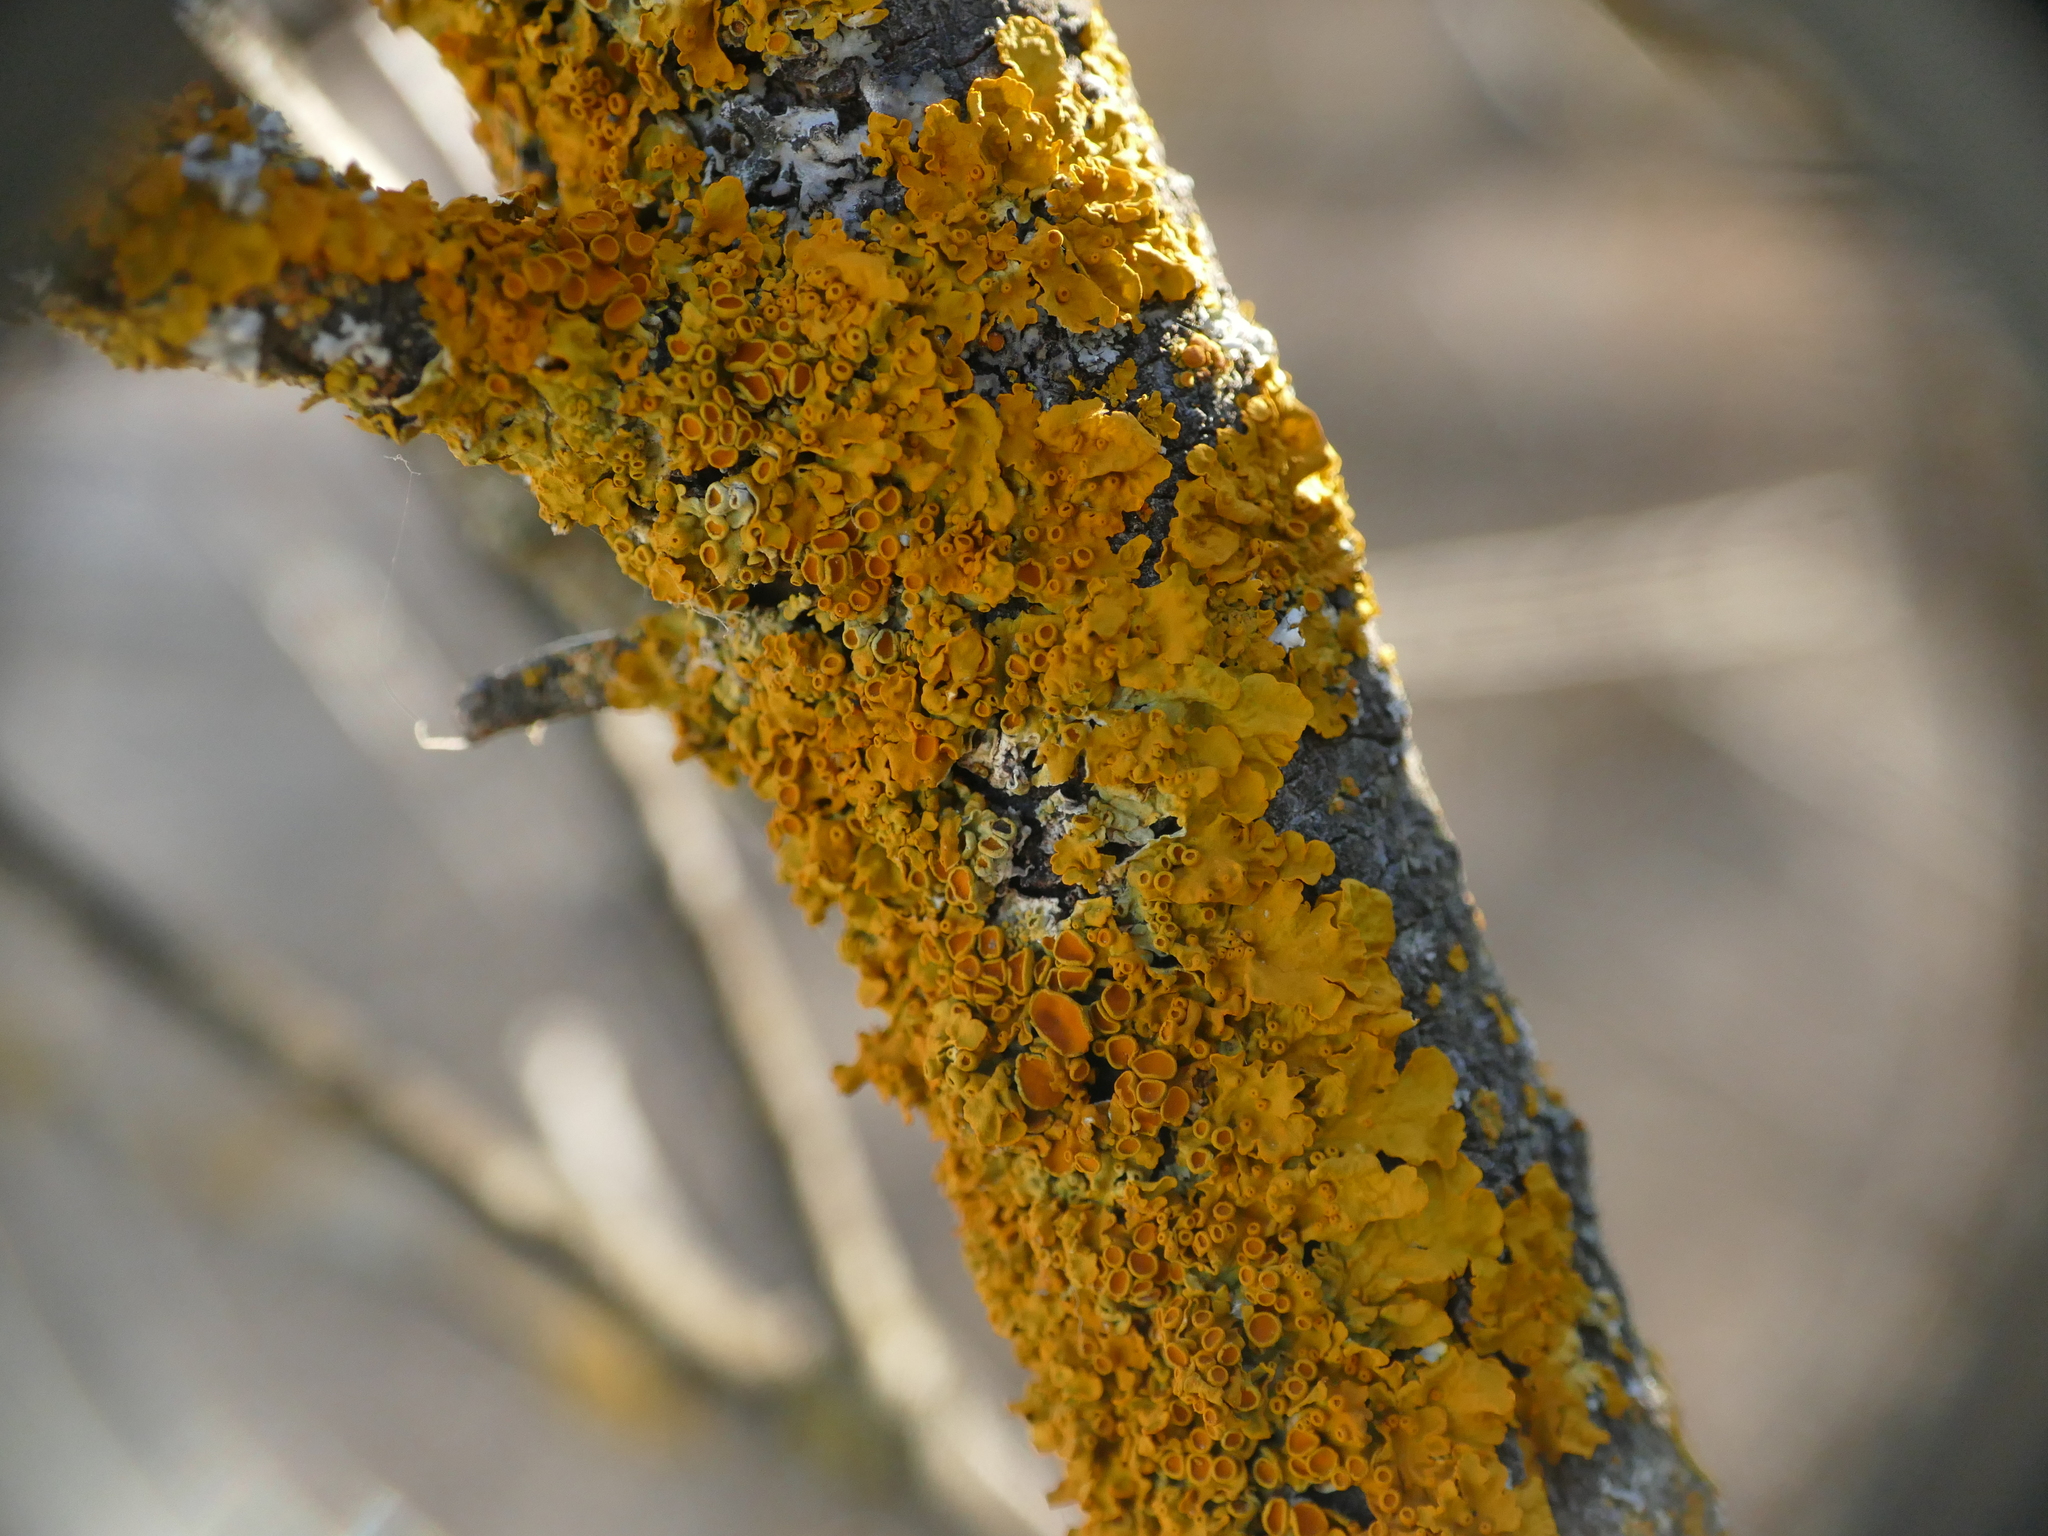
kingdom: Fungi
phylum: Ascomycota
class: Lecanoromycetes
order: Teloschistales
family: Teloschistaceae
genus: Xanthoria
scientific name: Xanthoria parietina
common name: Common orange lichen
